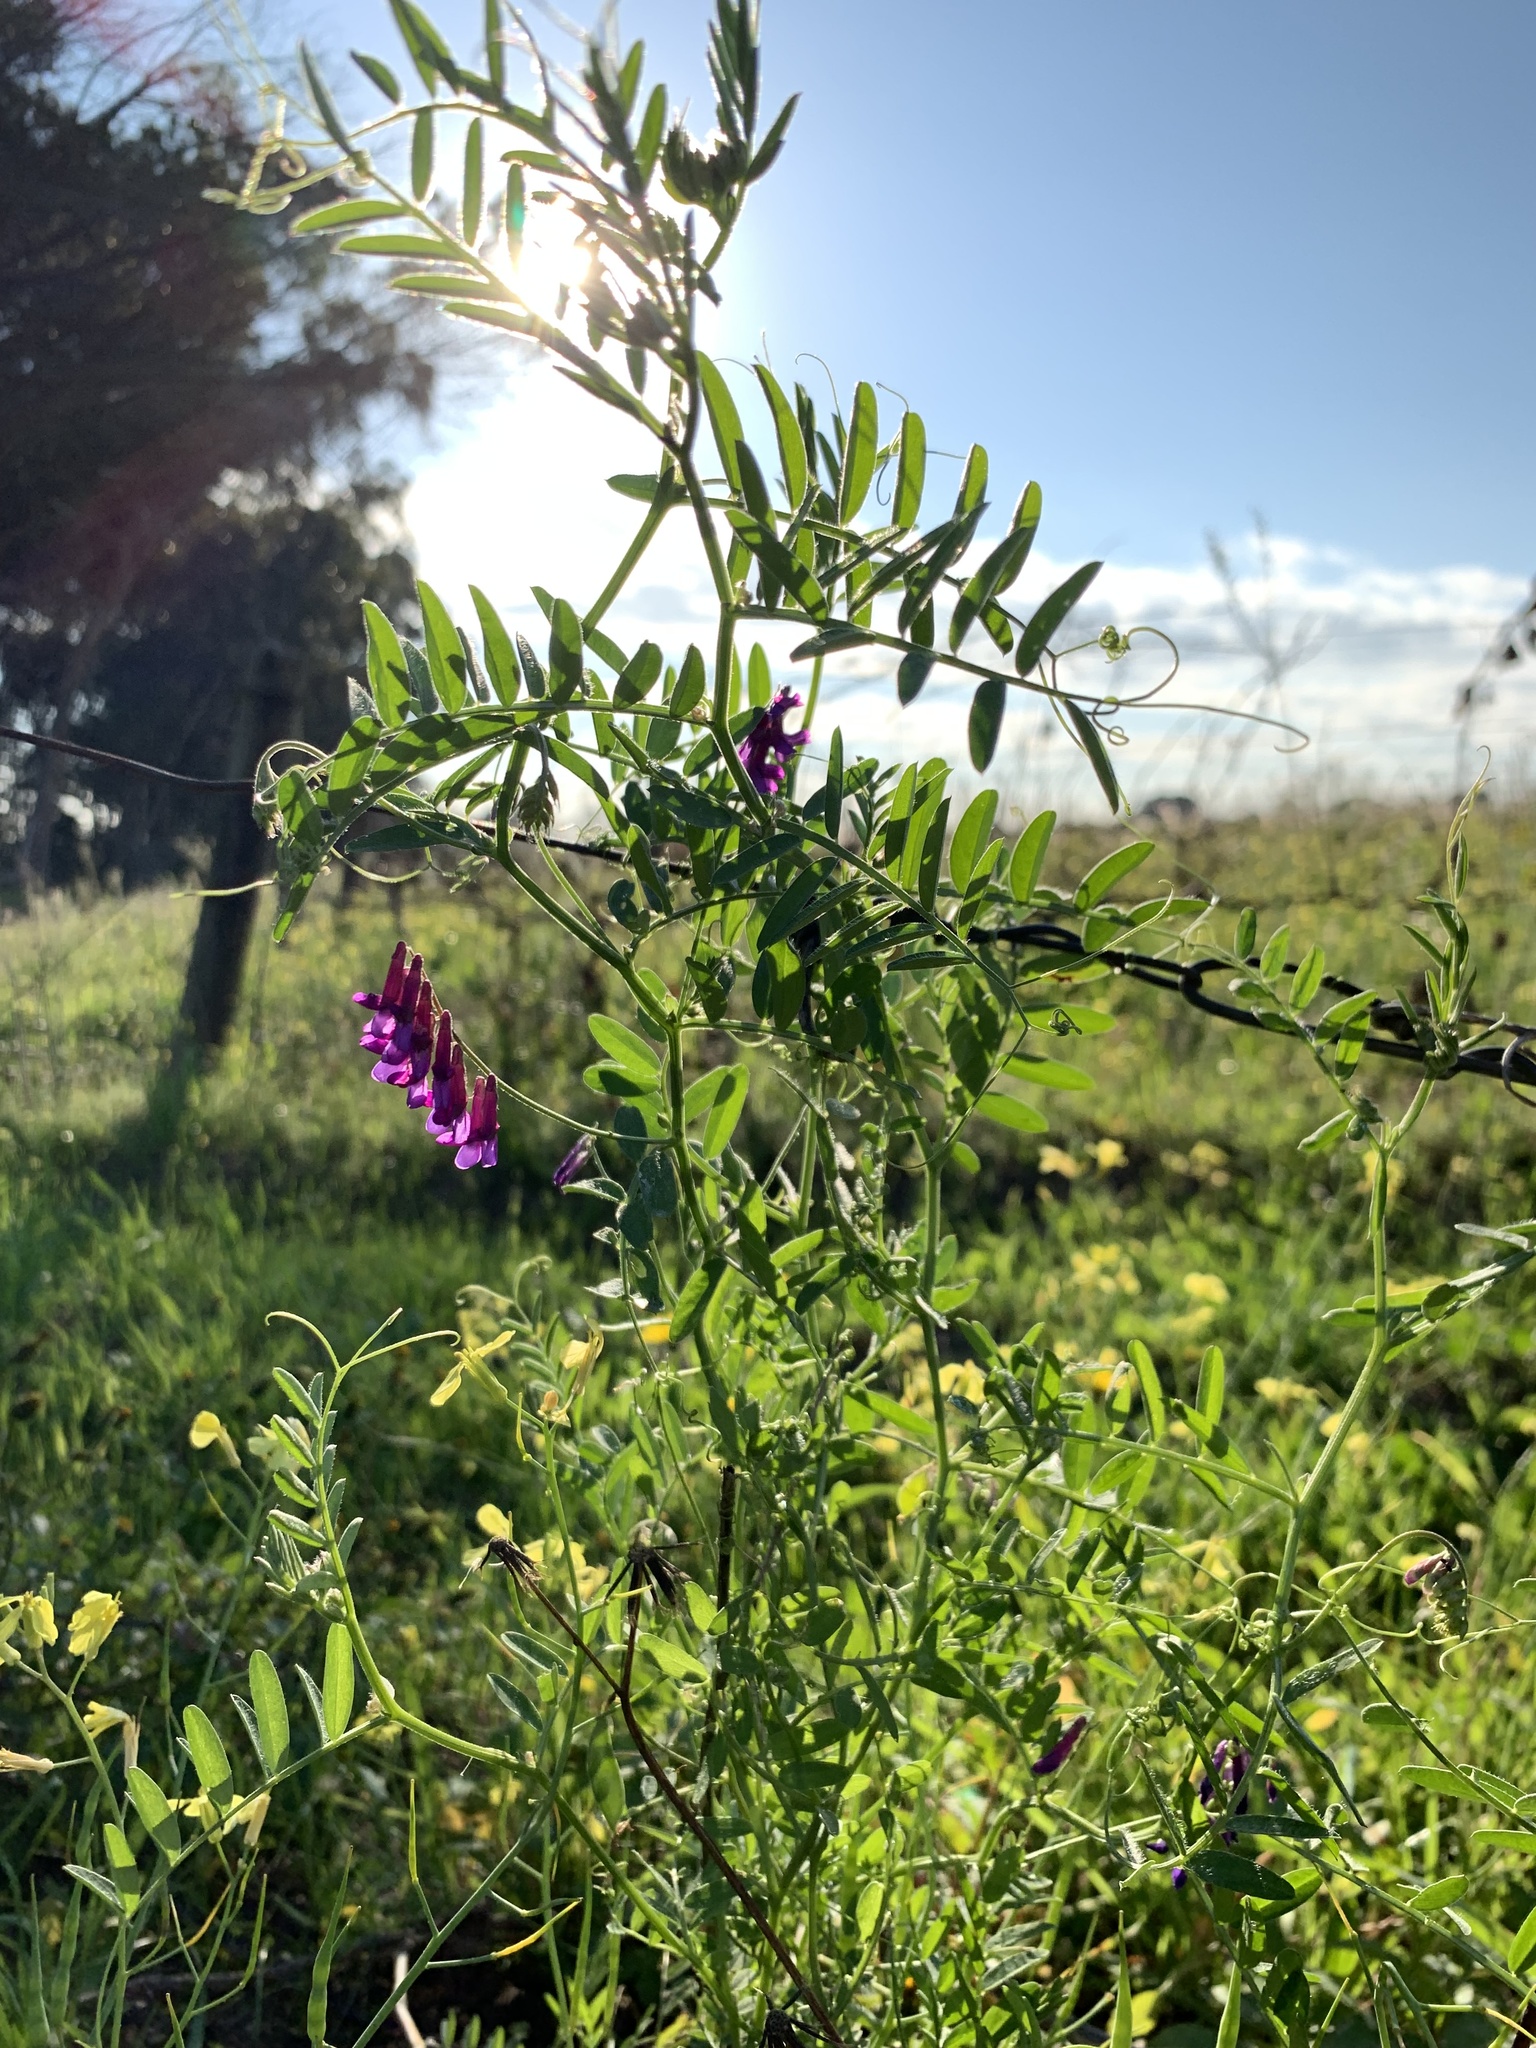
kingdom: Plantae
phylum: Tracheophyta
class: Magnoliopsida
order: Fabales
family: Fabaceae
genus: Vicia
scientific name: Vicia eriocarpa
